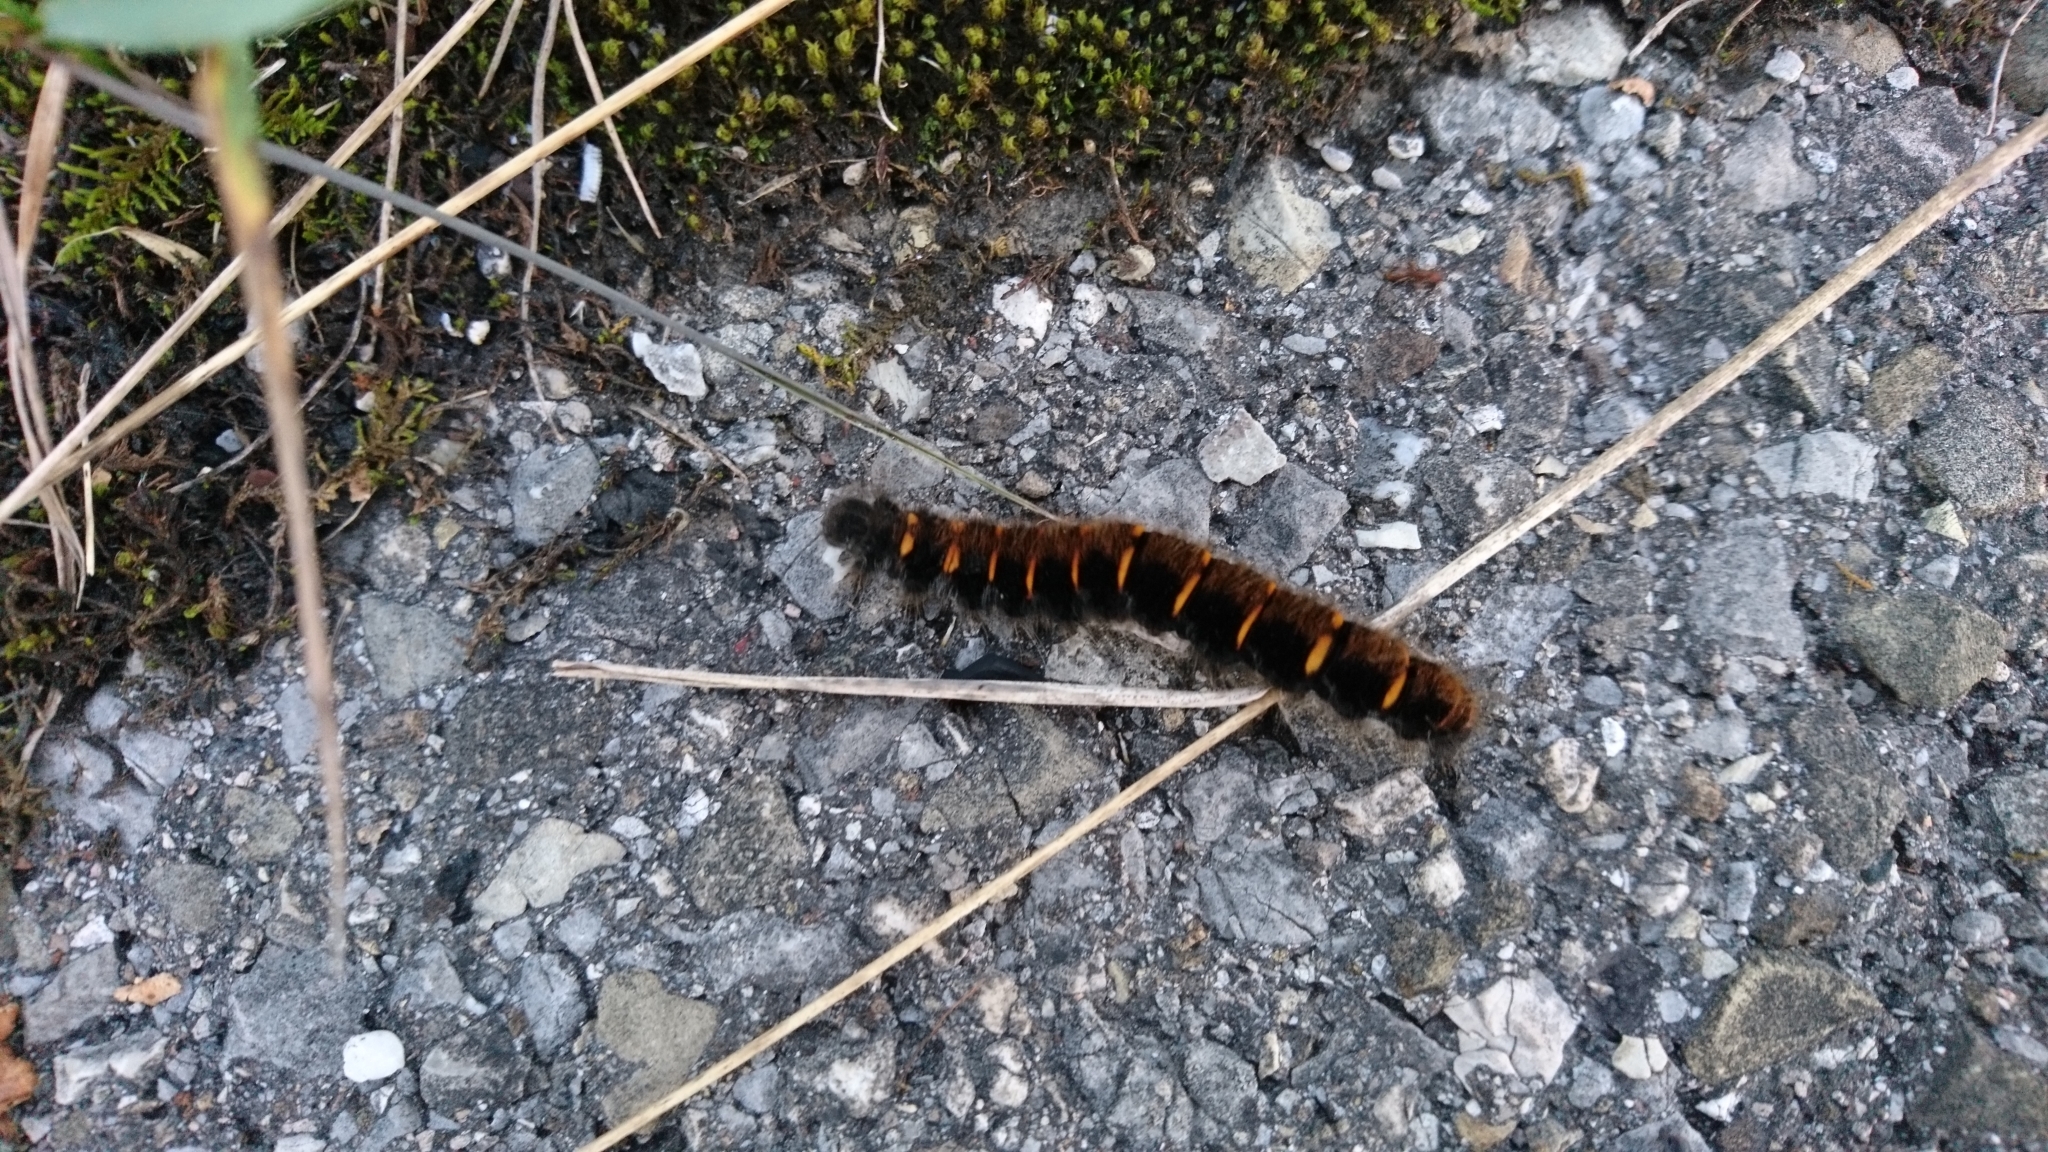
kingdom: Animalia
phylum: Arthropoda
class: Insecta
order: Lepidoptera
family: Lasiocampidae
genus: Macrothylacia
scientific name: Macrothylacia rubi
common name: Fox moth
